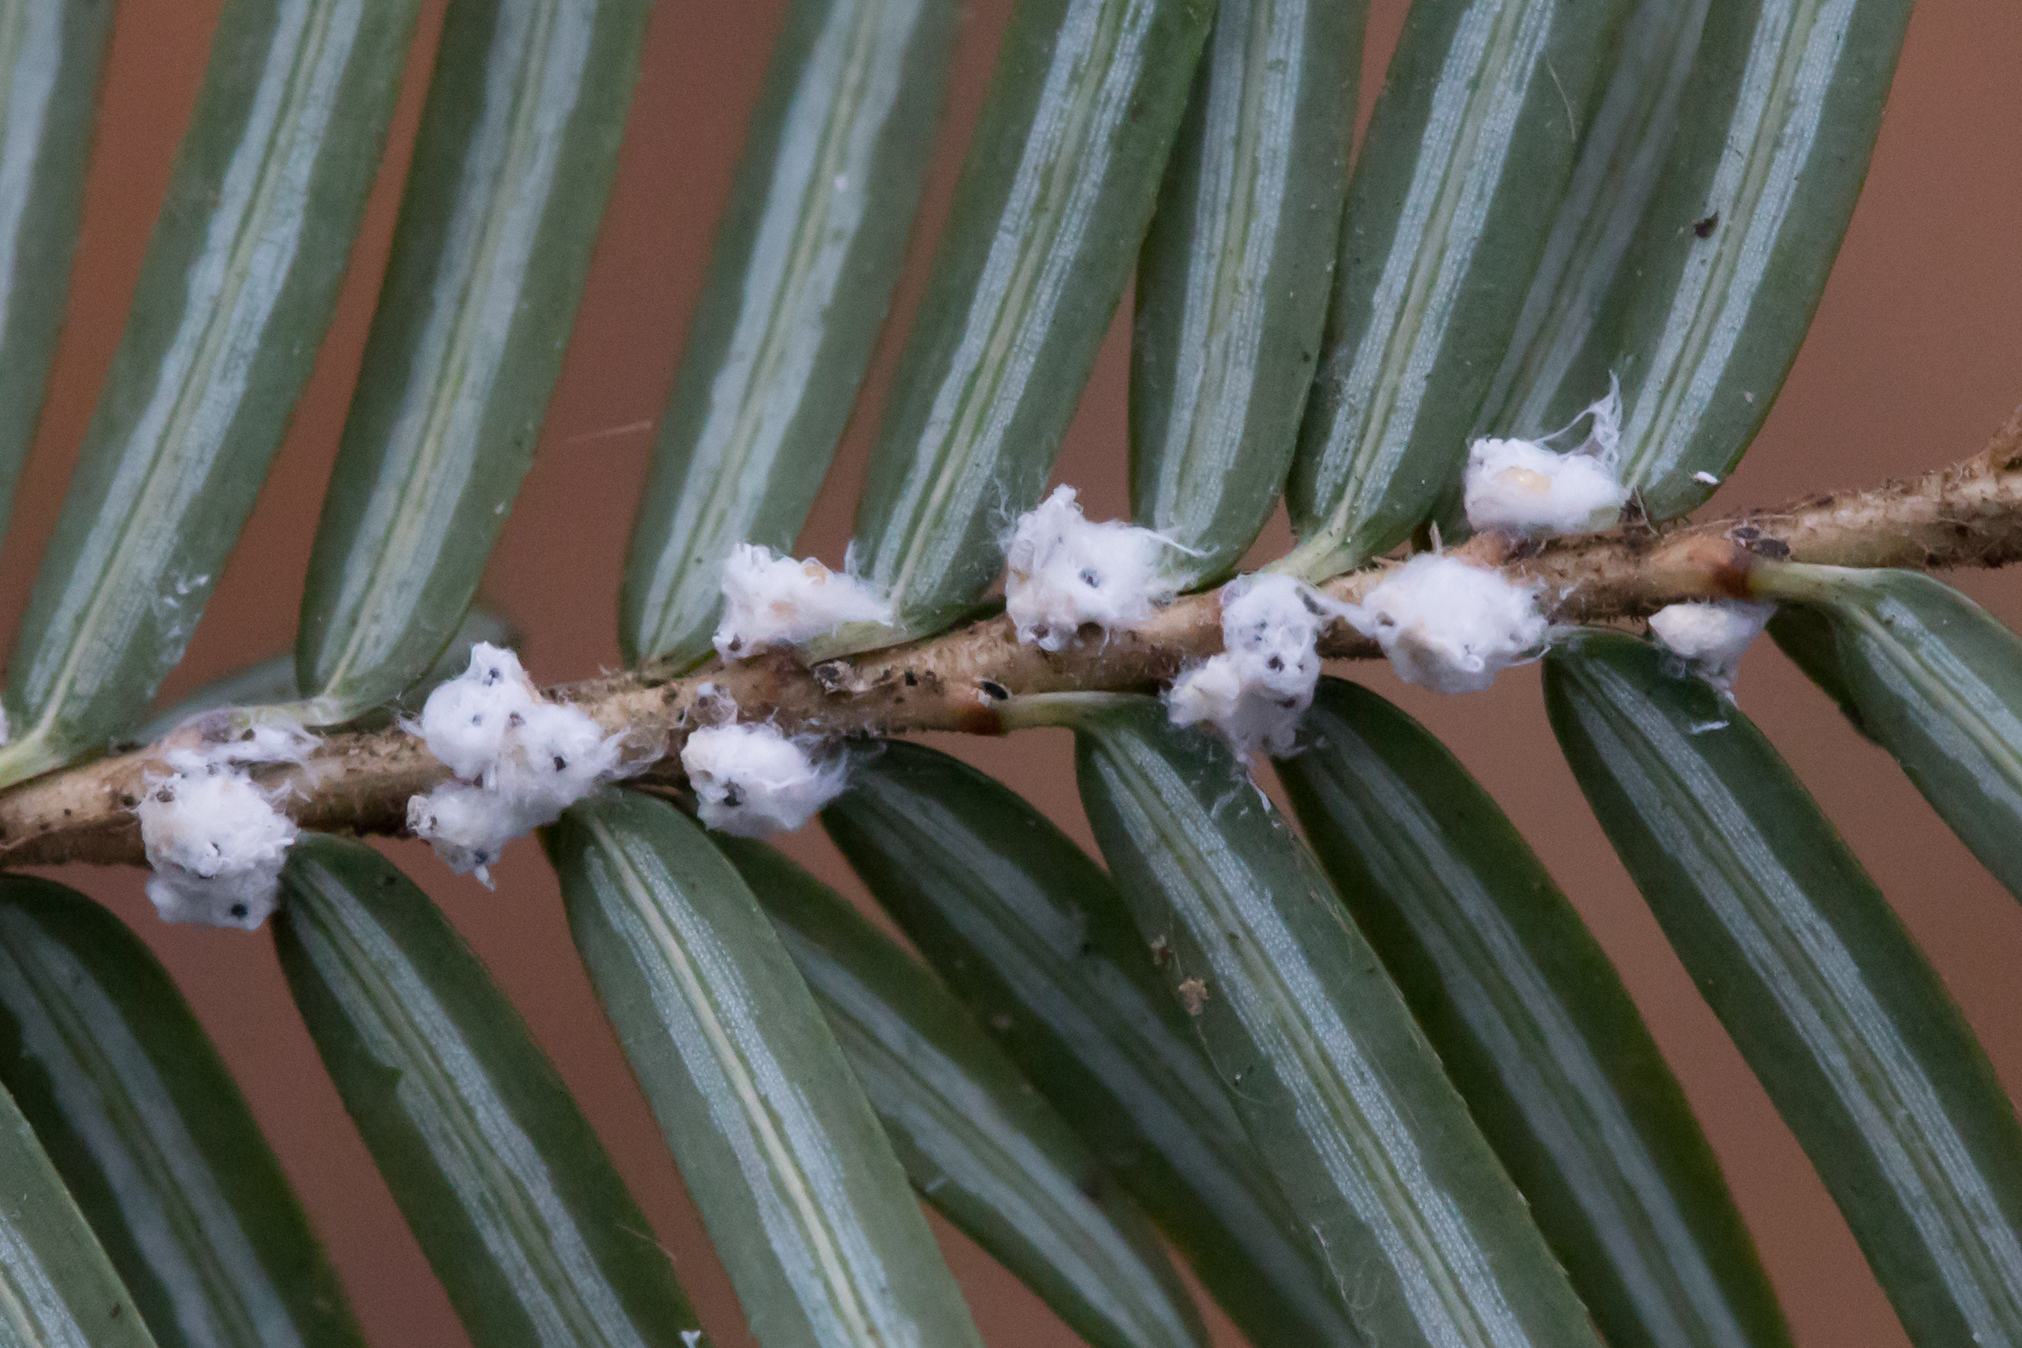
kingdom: Animalia
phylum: Arthropoda
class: Insecta
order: Hemiptera
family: Adelgidae
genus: Adelges
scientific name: Adelges tsugae
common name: Hemlock woolly adelgid
